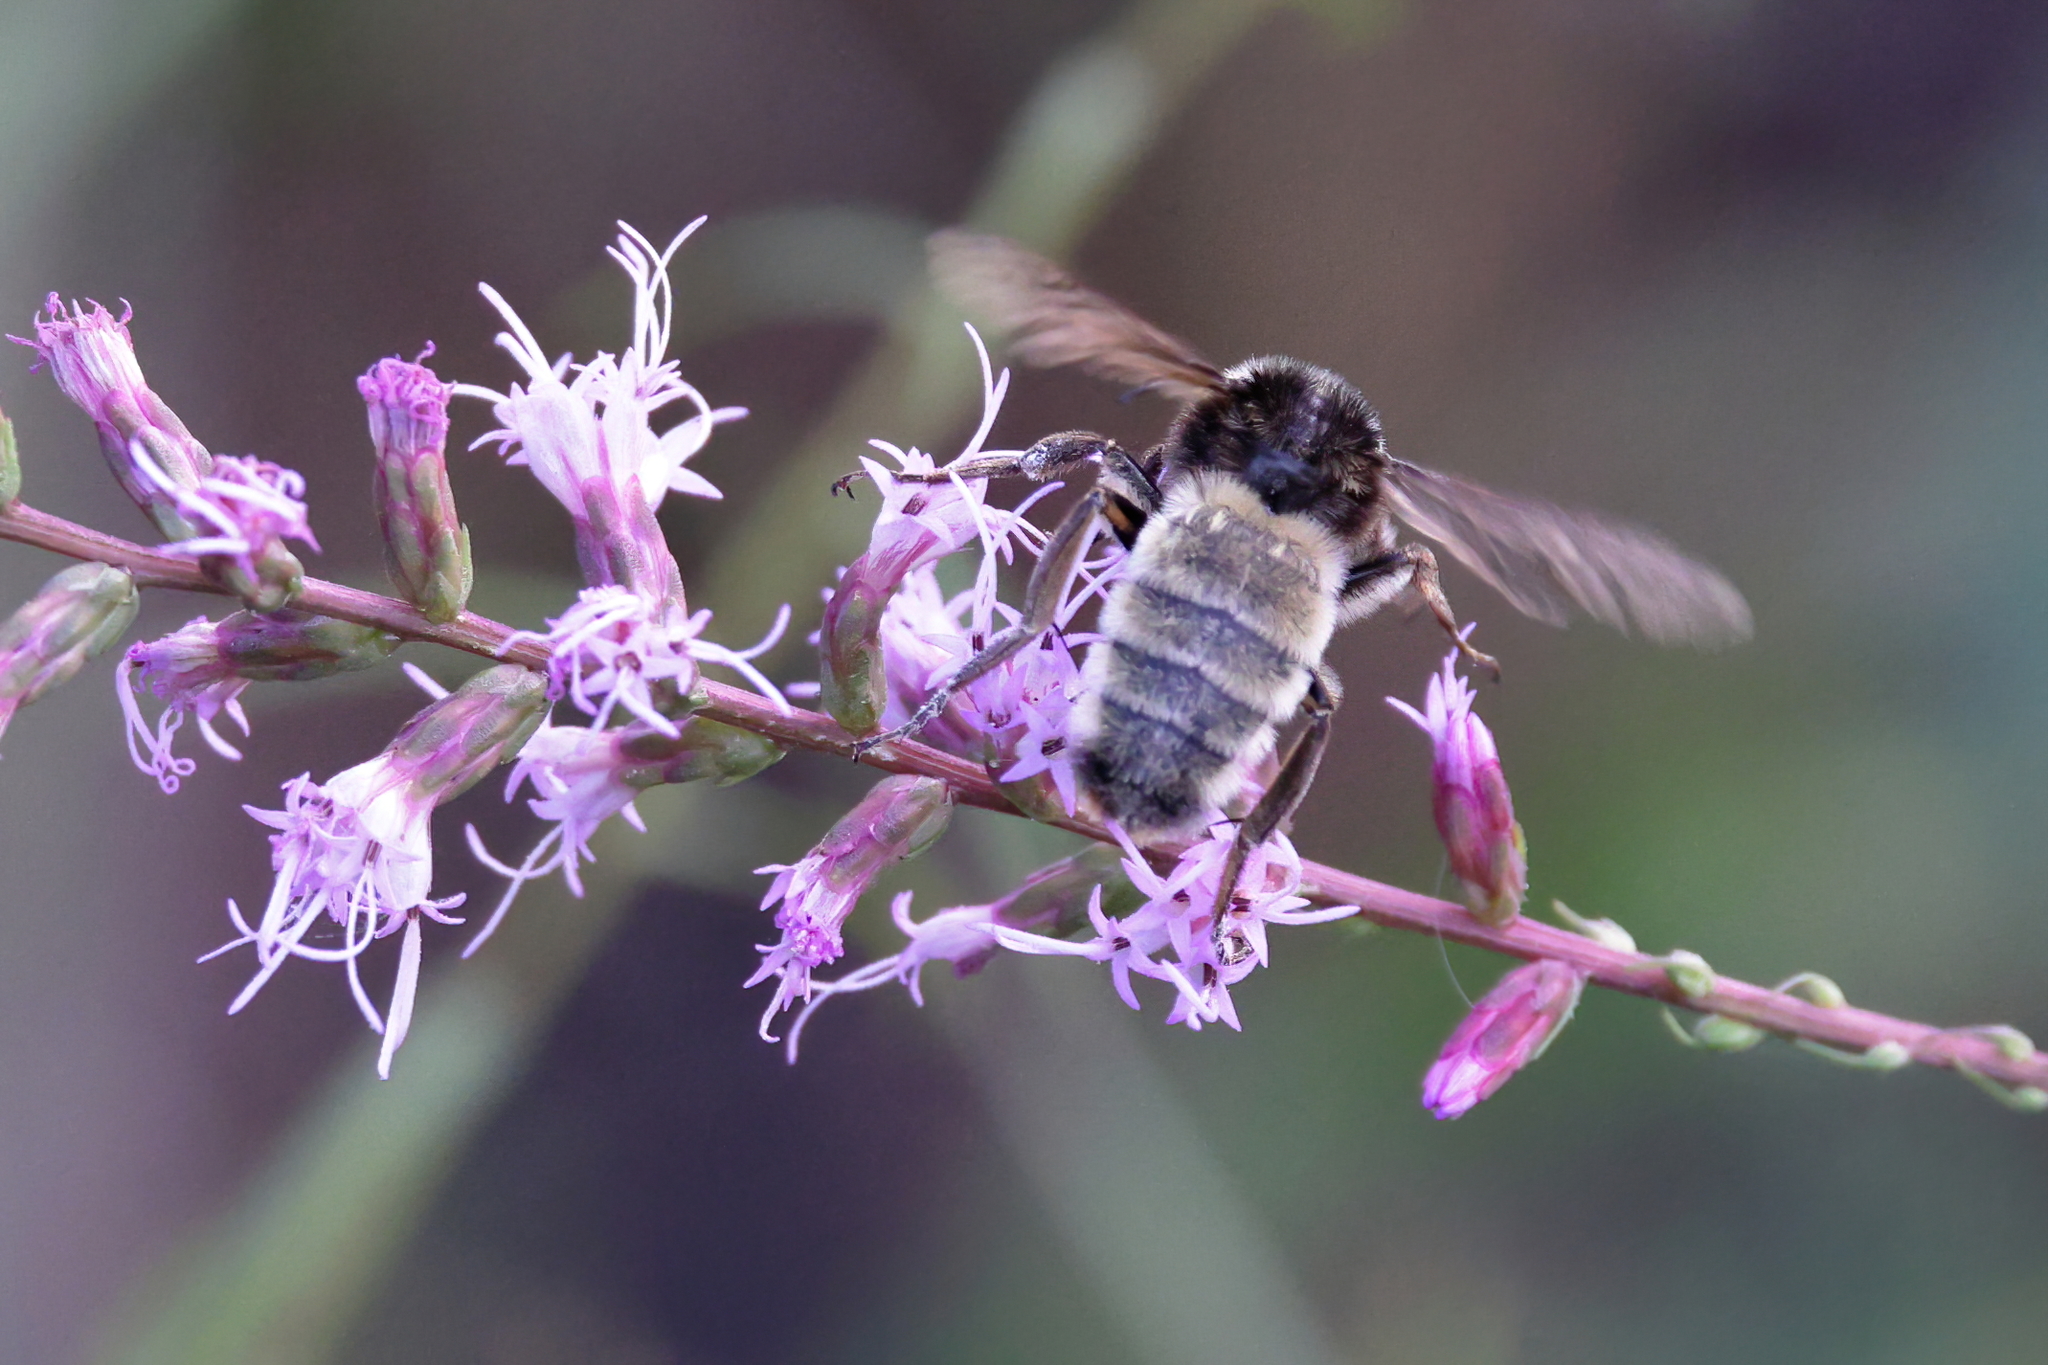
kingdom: Animalia
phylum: Arthropoda
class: Insecta
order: Hymenoptera
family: Apidae
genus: Bombus
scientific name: Bombus pensylvanicus
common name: Bumble bee
